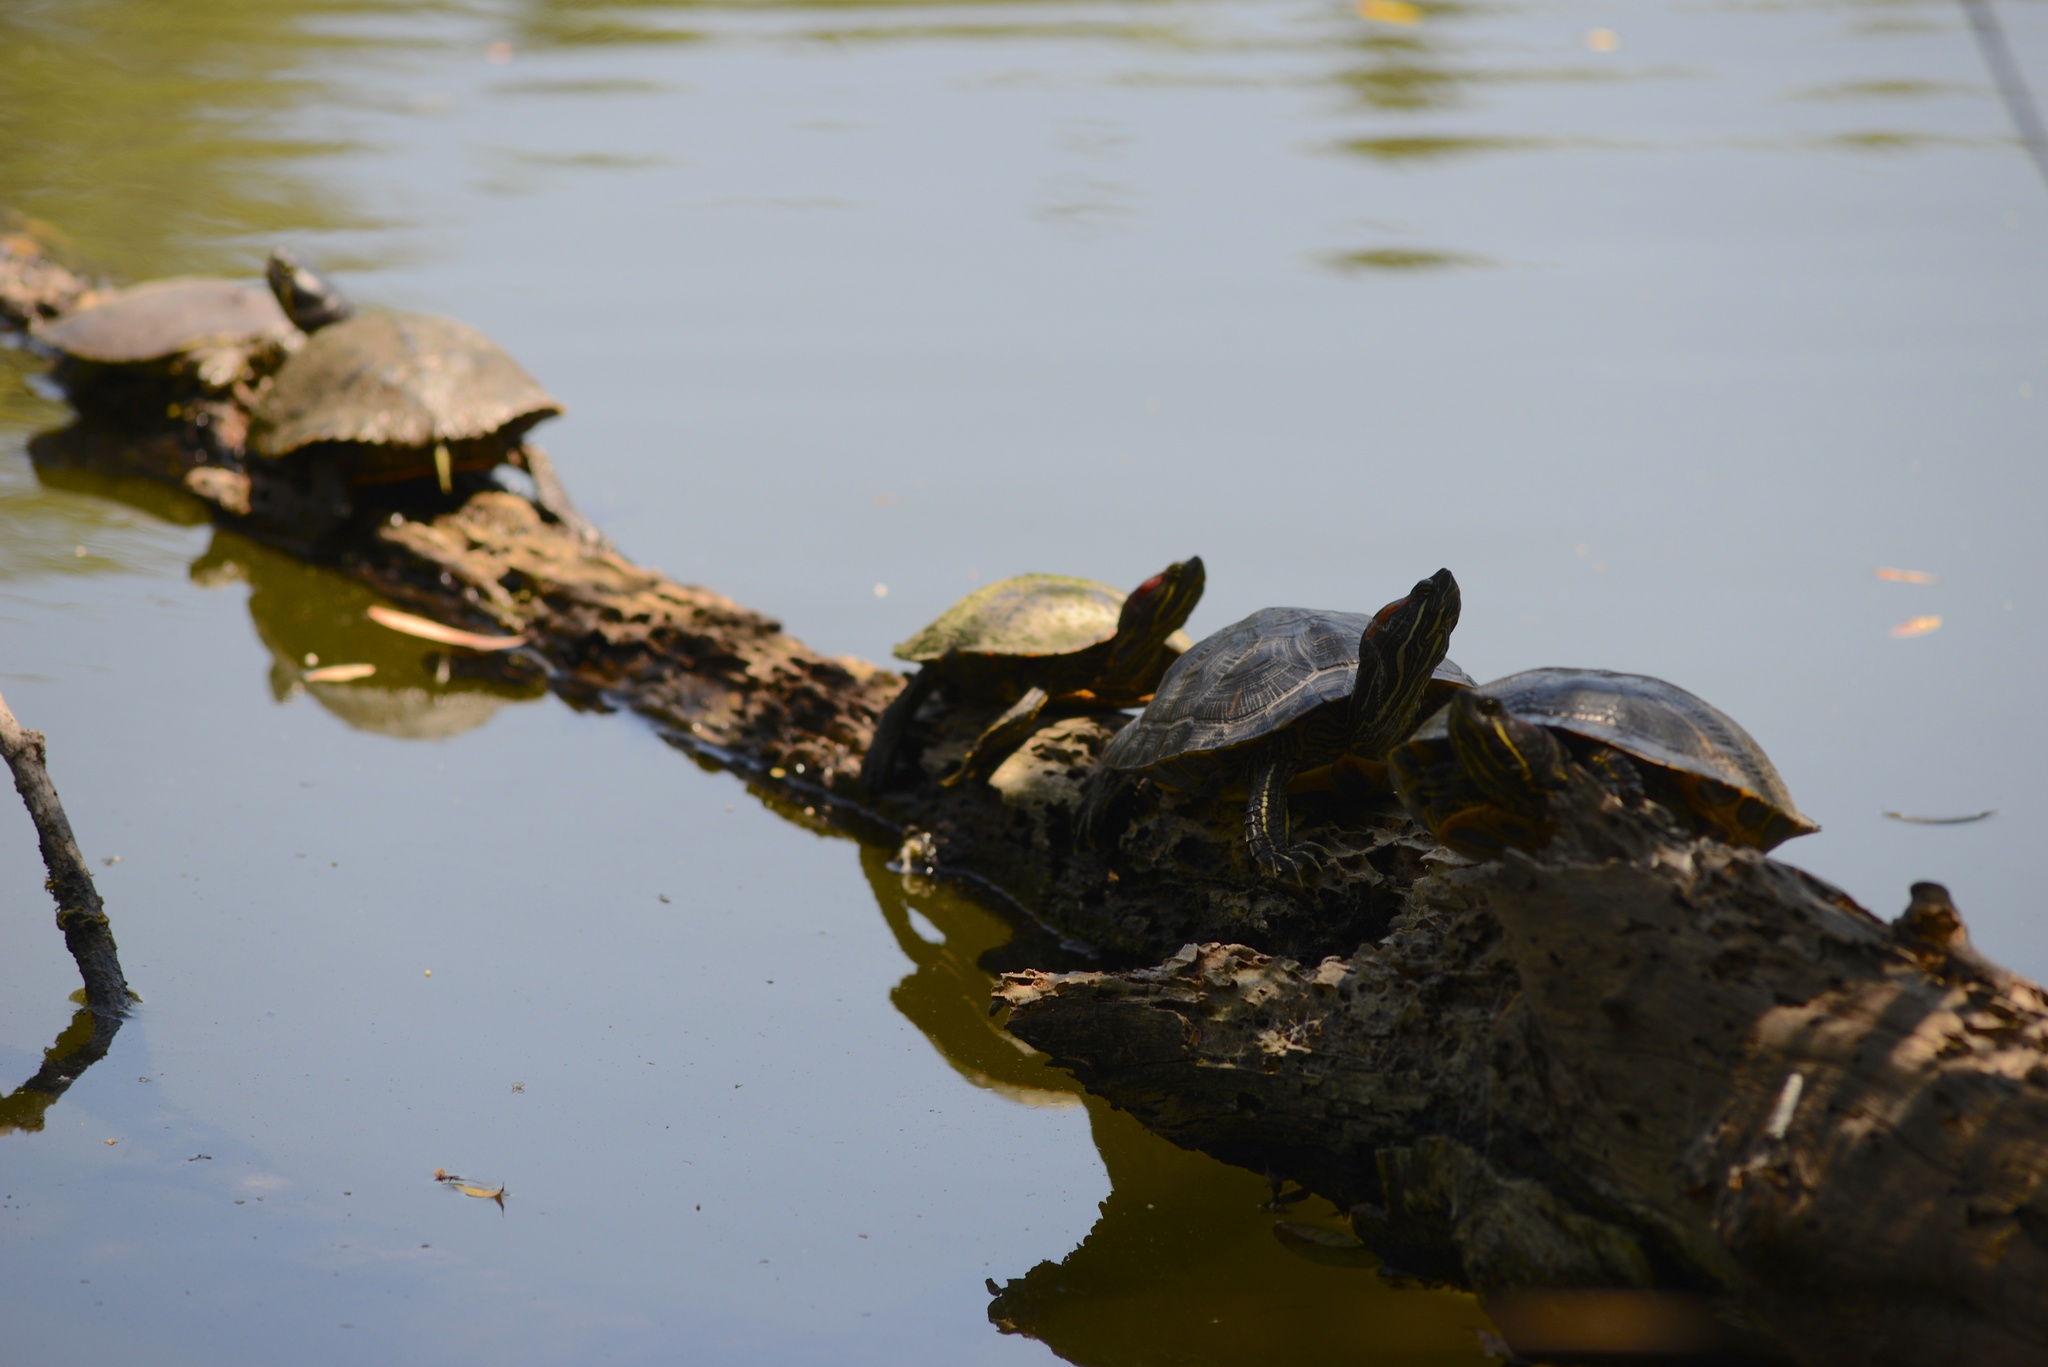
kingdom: Animalia
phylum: Chordata
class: Testudines
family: Emydidae
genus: Trachemys
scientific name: Trachemys scripta
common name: Slider
